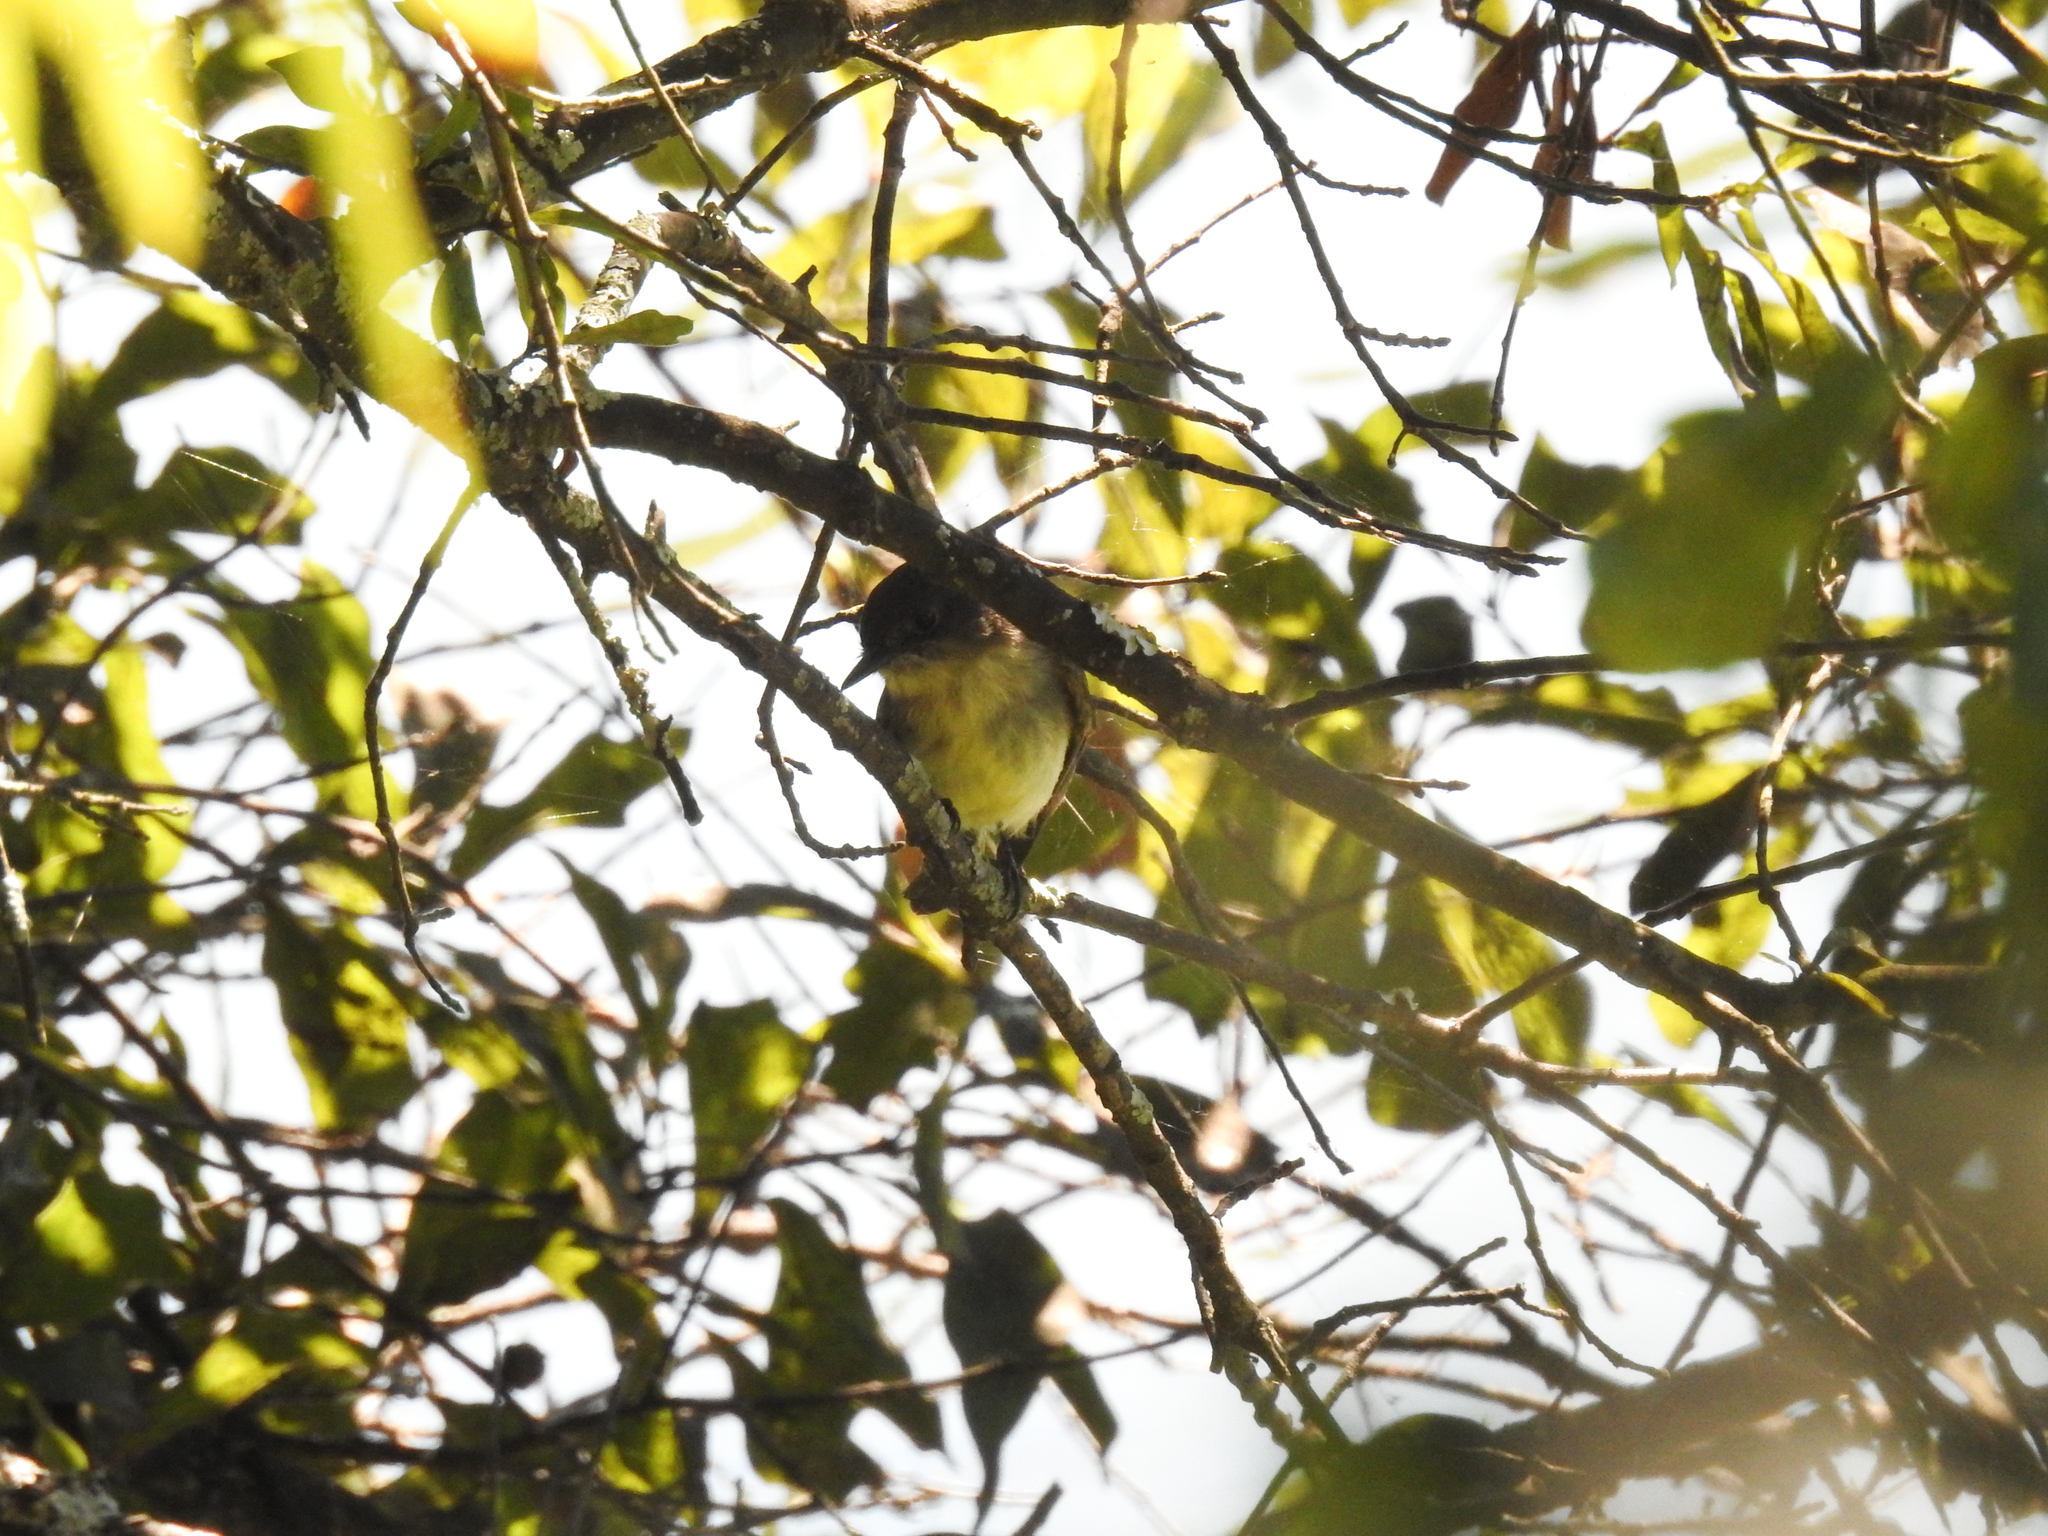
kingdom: Animalia
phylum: Chordata
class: Aves
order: Passeriformes
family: Tyrannidae
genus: Sayornis
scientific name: Sayornis phoebe
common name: Eastern phoebe
